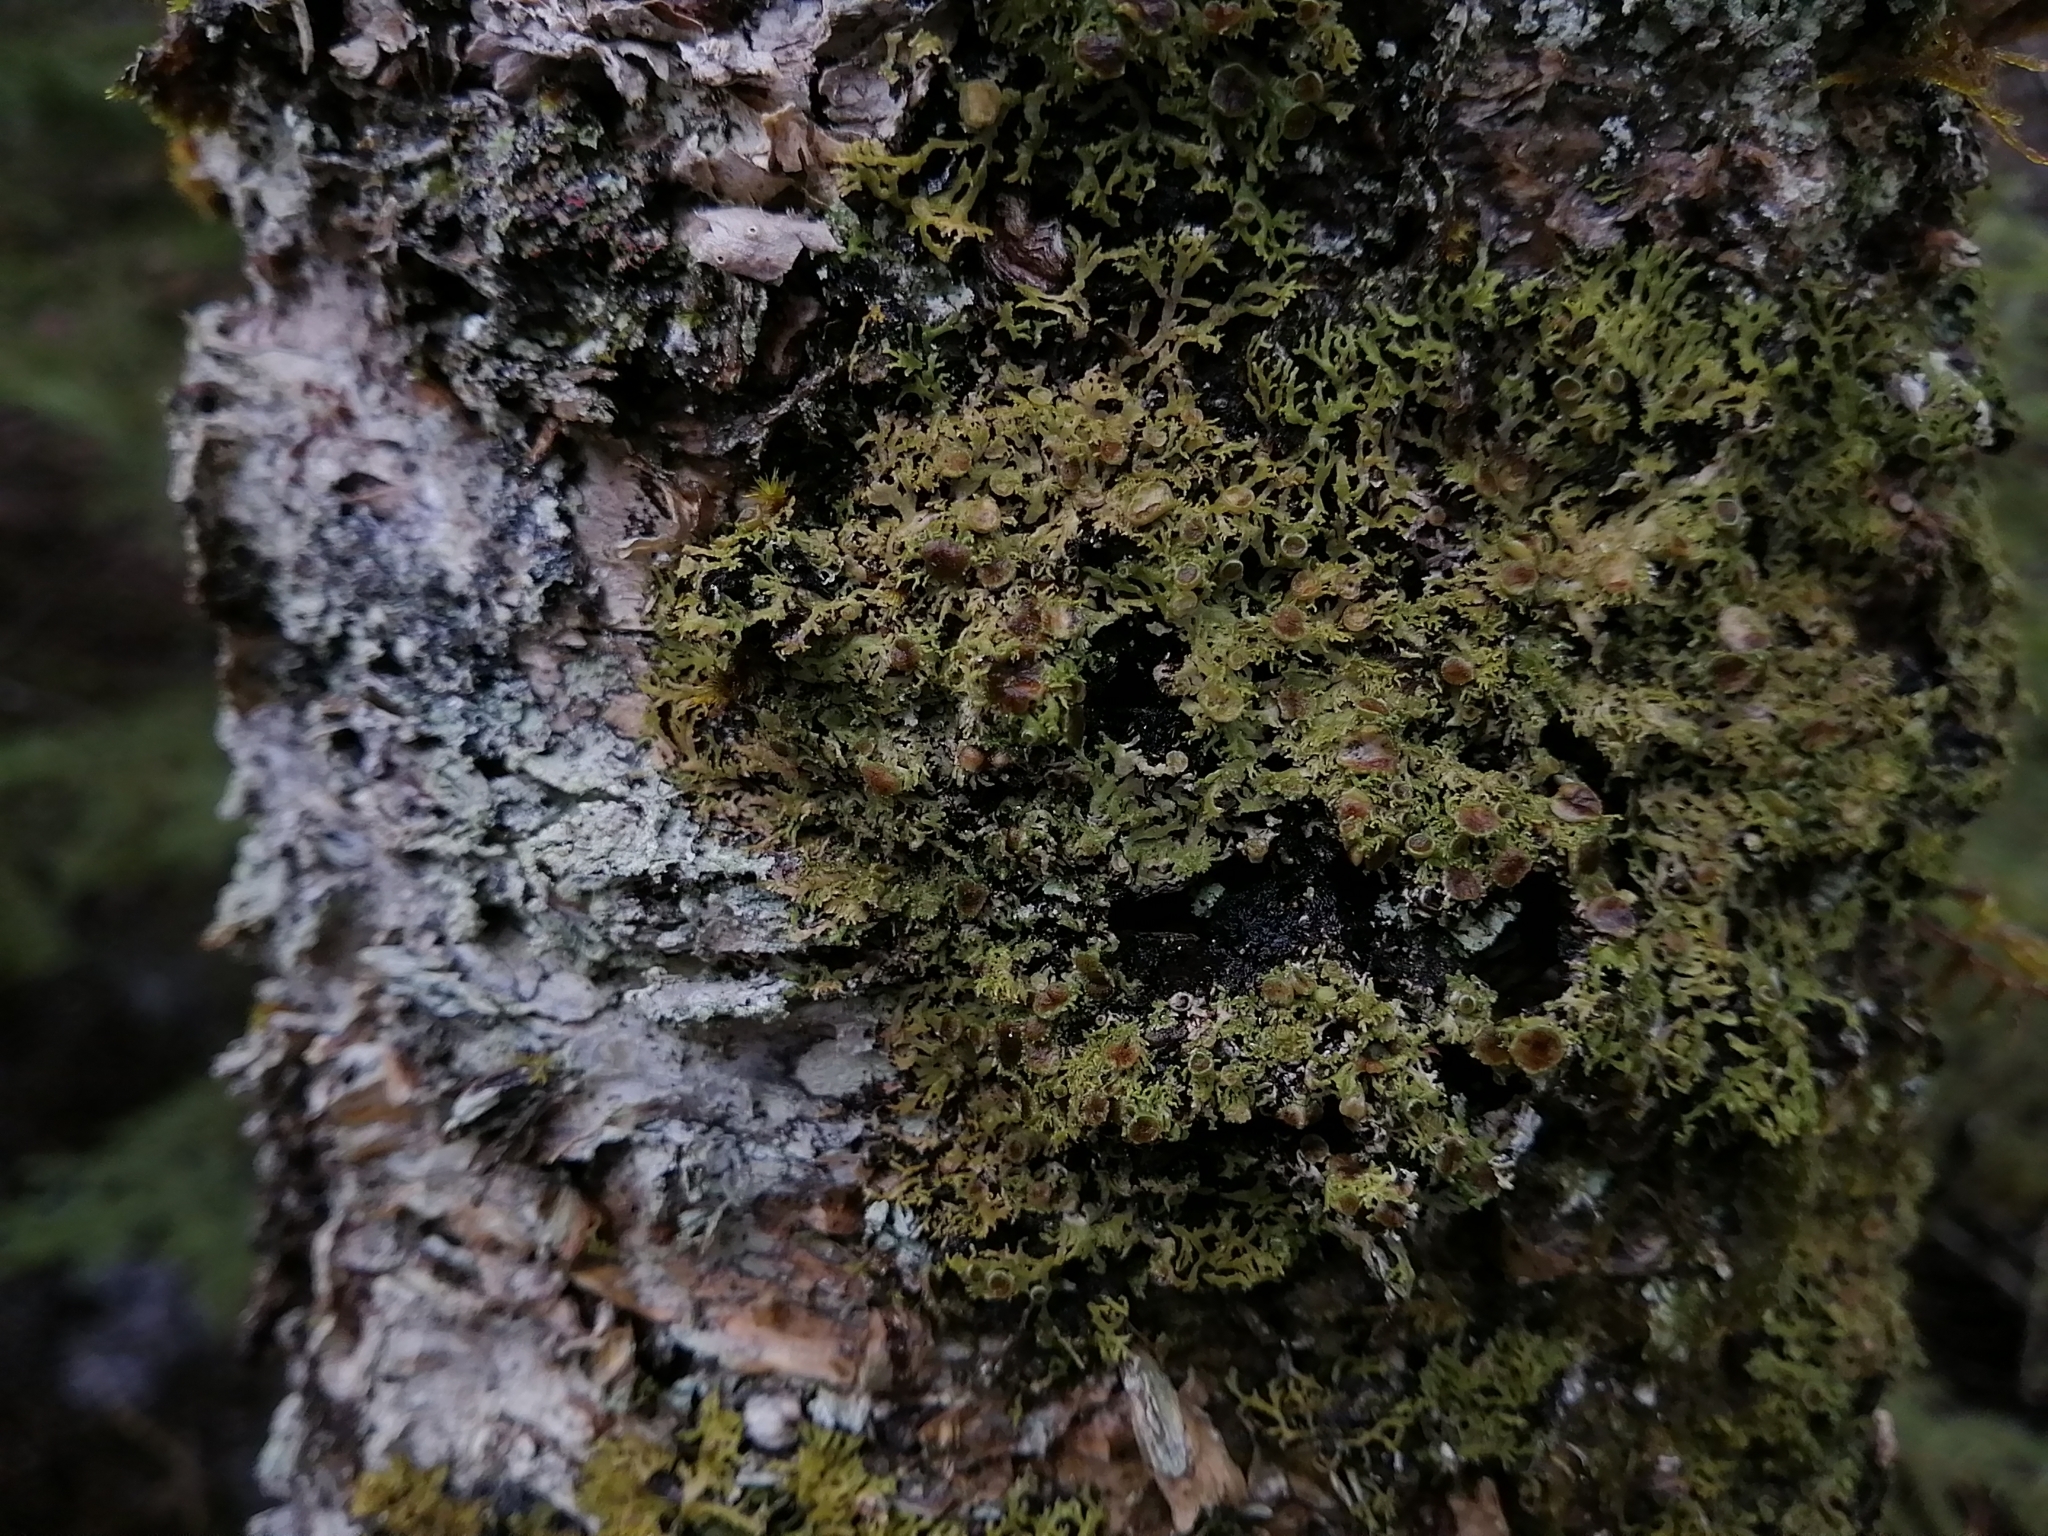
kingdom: Fungi
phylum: Ascomycota
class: Lecanoromycetes
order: Caliciales
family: Physciaceae
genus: Kurokawia
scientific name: Kurokawia palmulata
